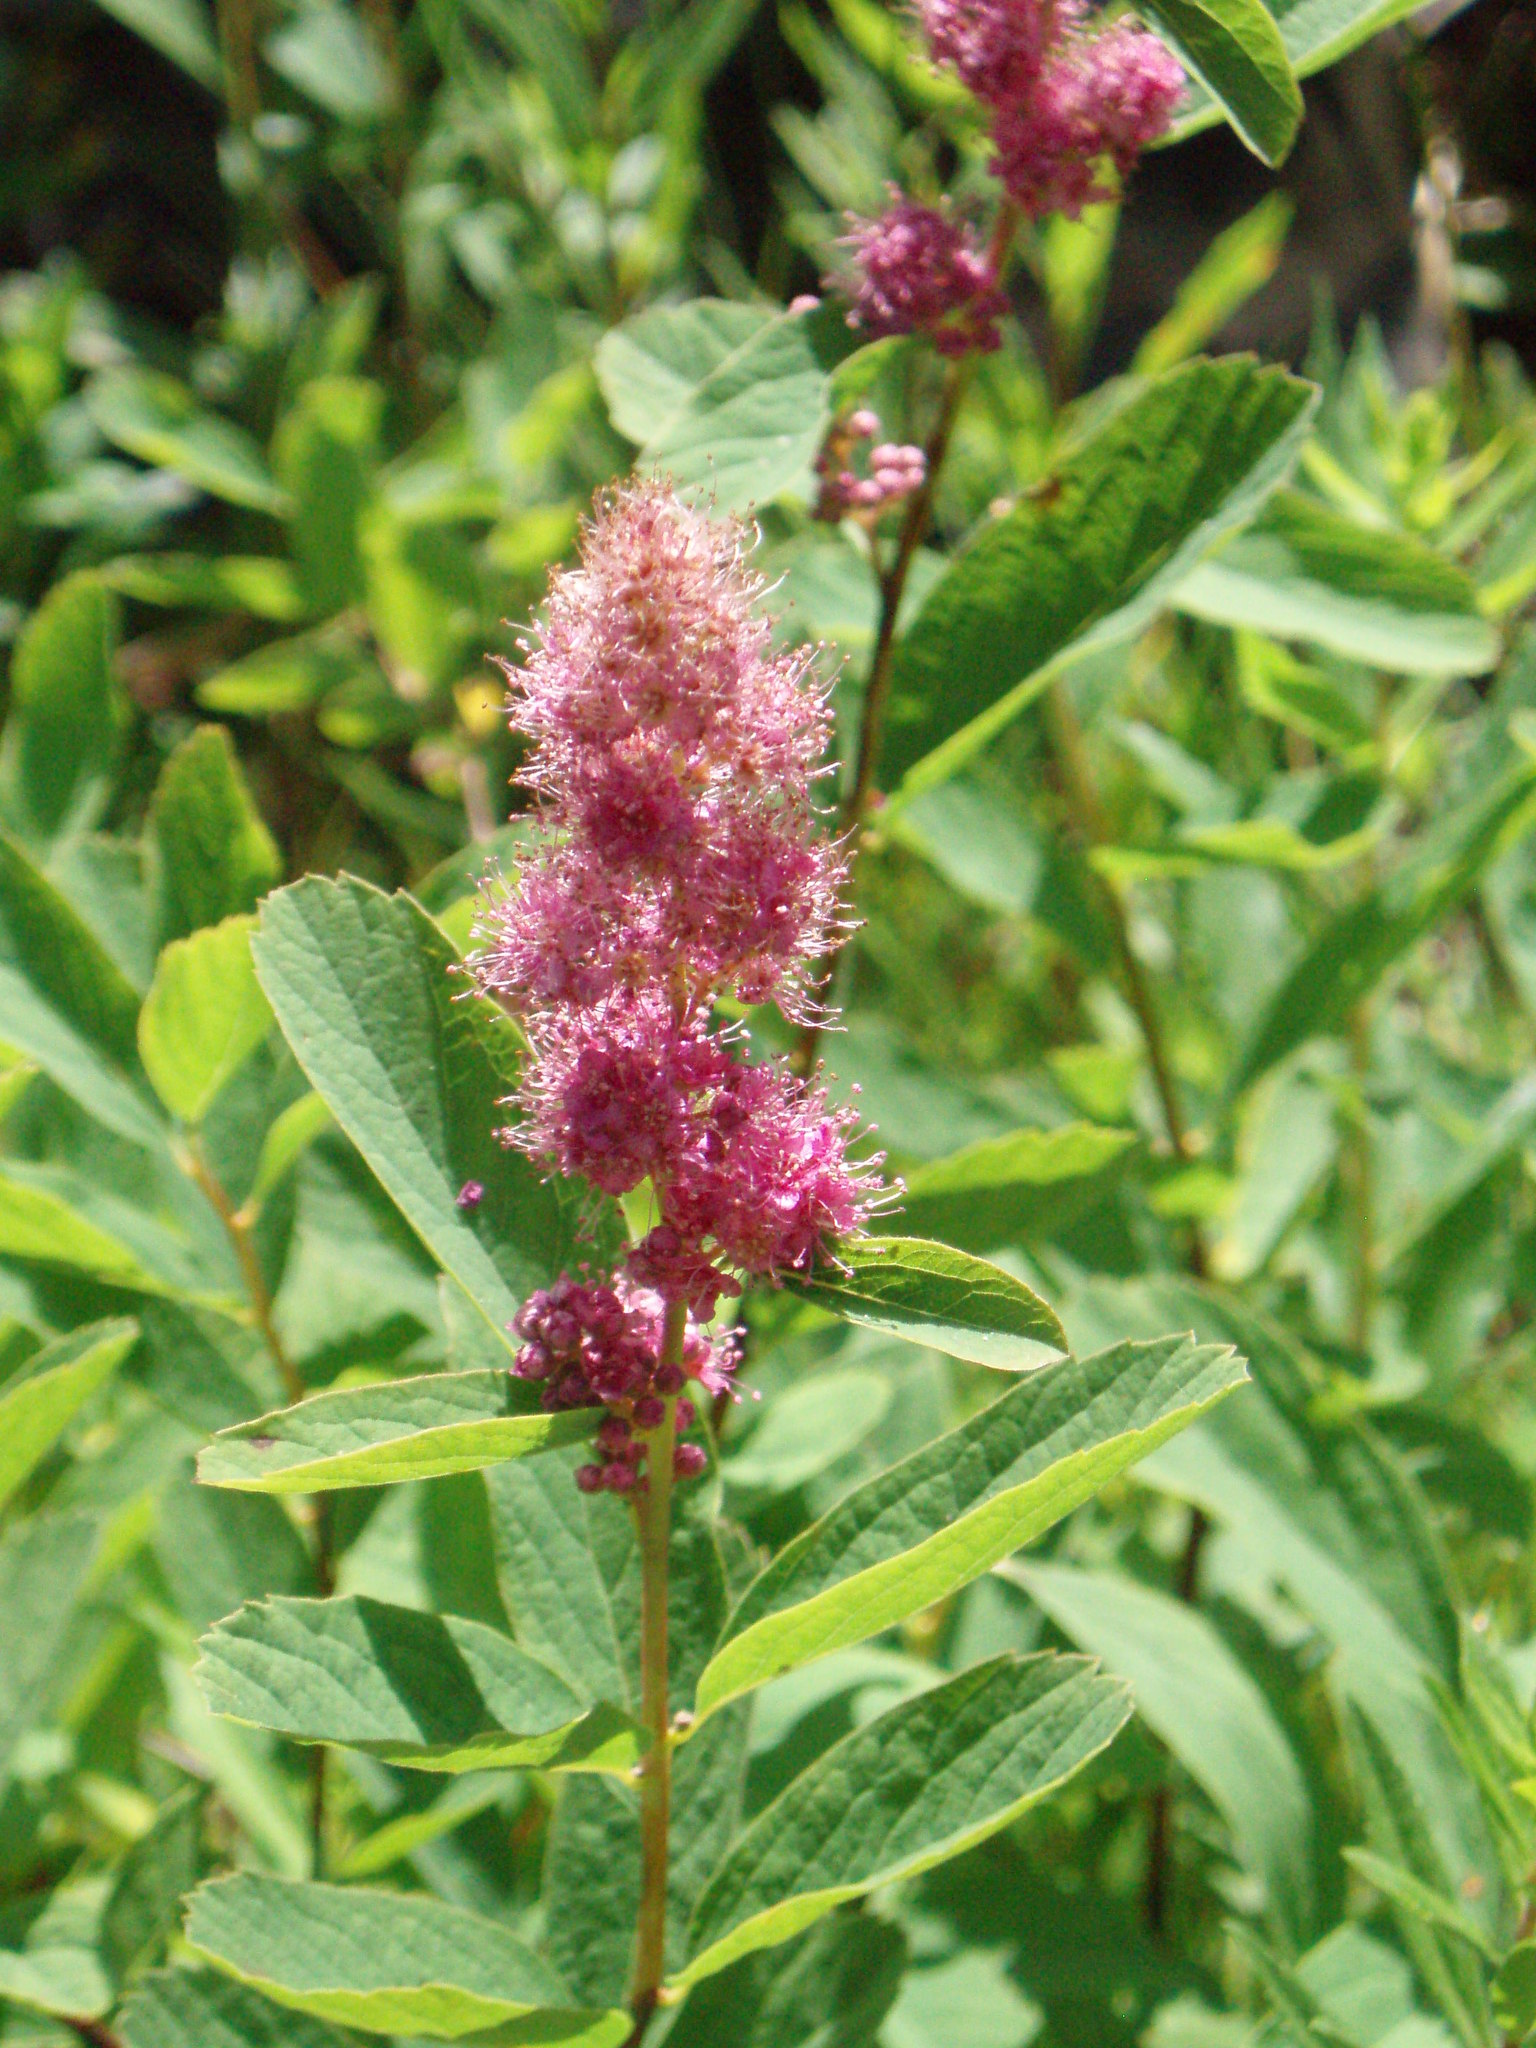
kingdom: Plantae
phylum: Tracheophyta
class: Magnoliopsida
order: Rosales
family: Rosaceae
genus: Spiraea
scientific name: Spiraea douglasii
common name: Steeplebush
